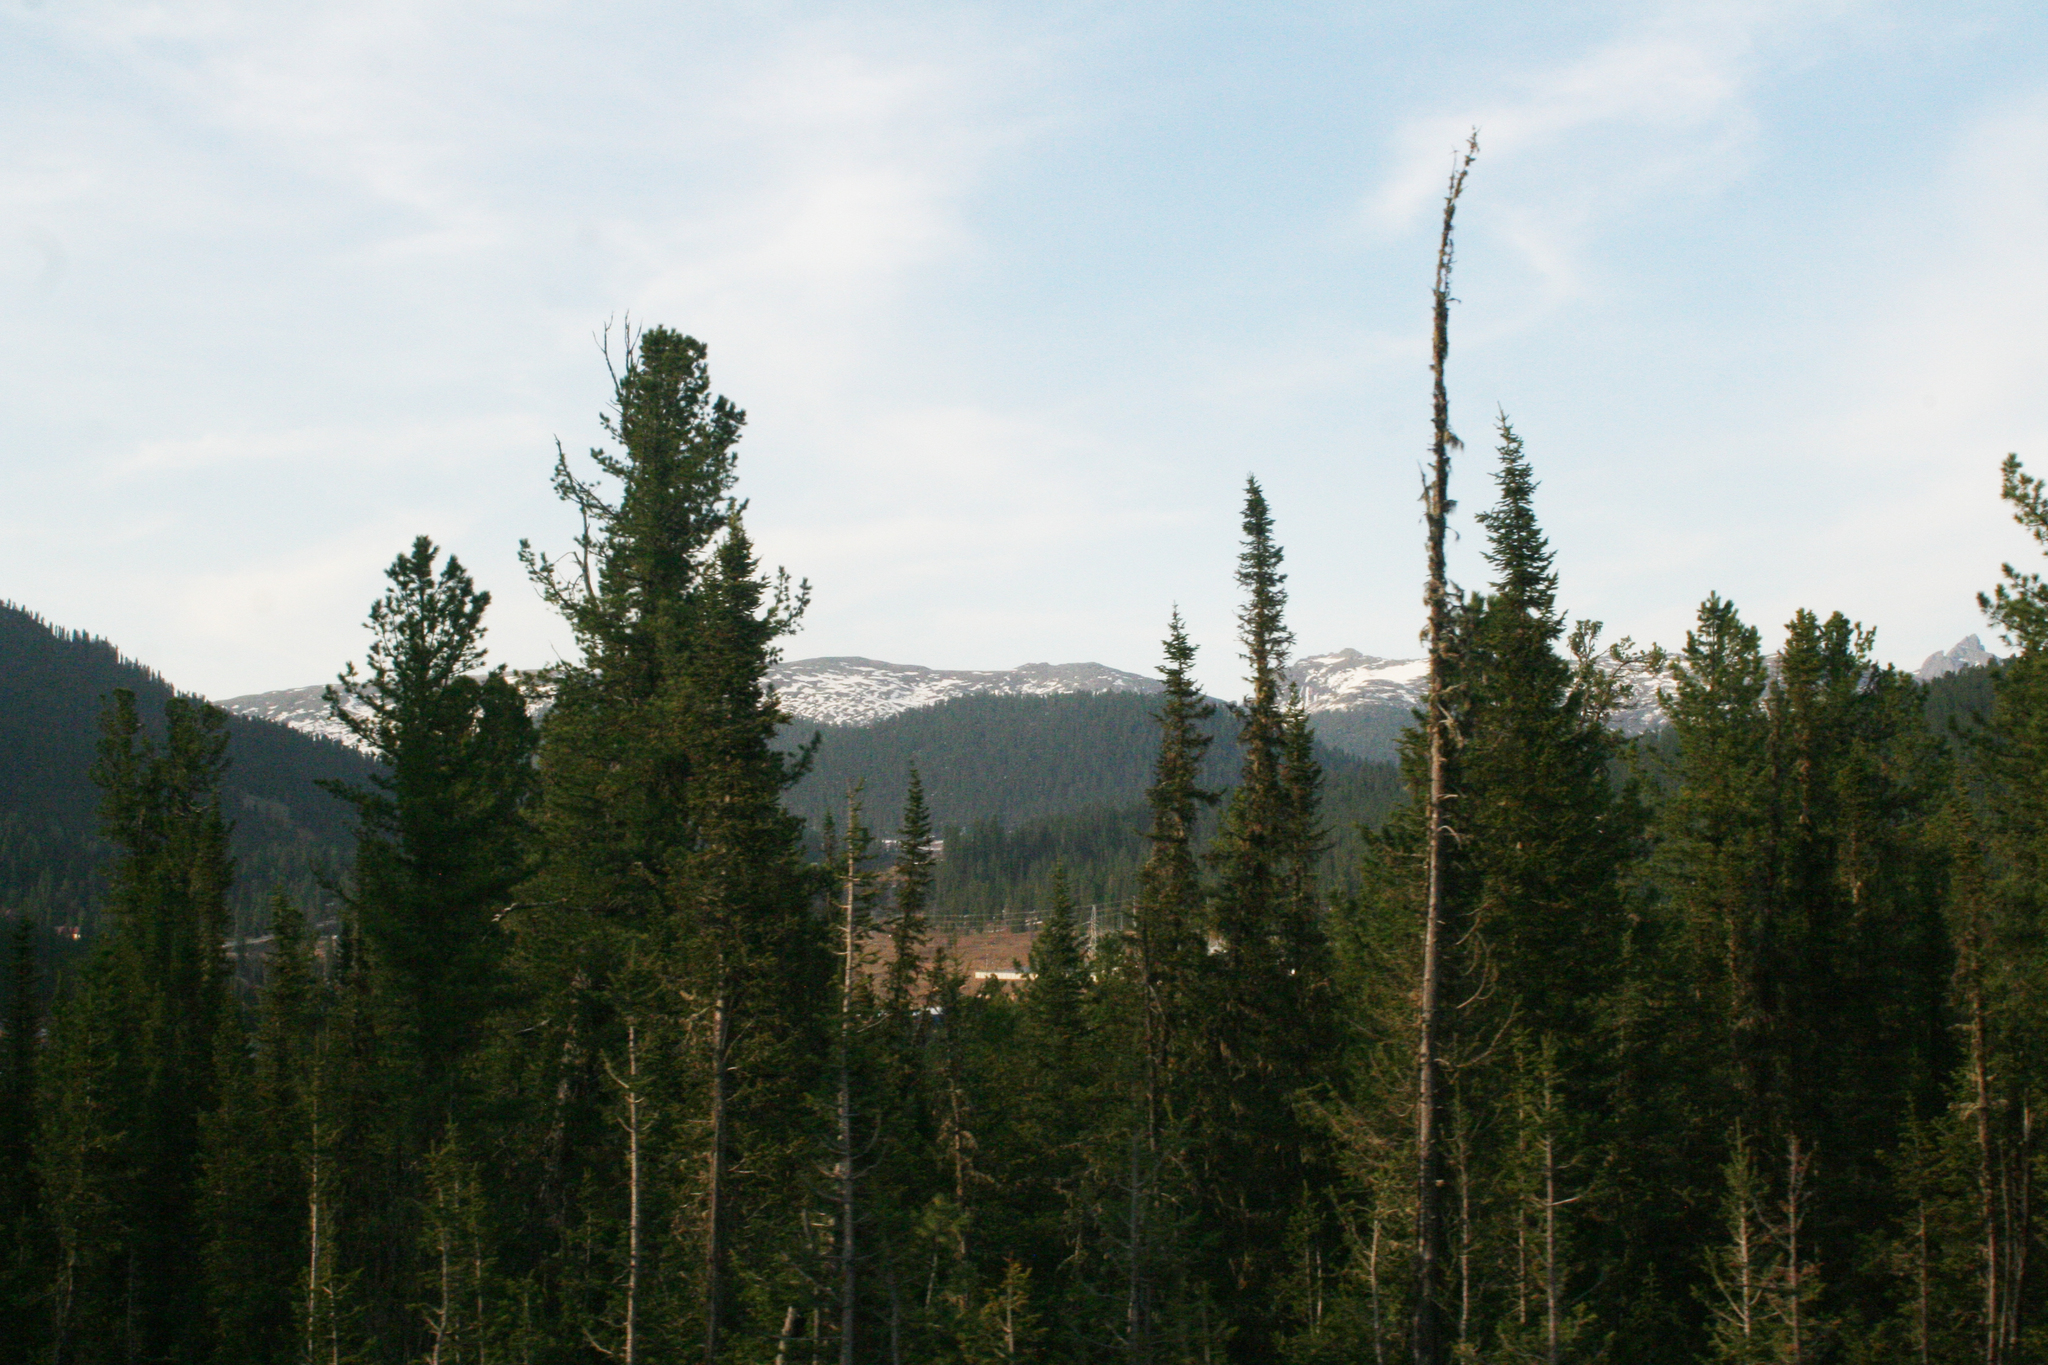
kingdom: Plantae
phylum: Tracheophyta
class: Pinopsida
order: Pinales
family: Pinaceae
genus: Abies
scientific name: Abies sibirica
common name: Siberian fir
